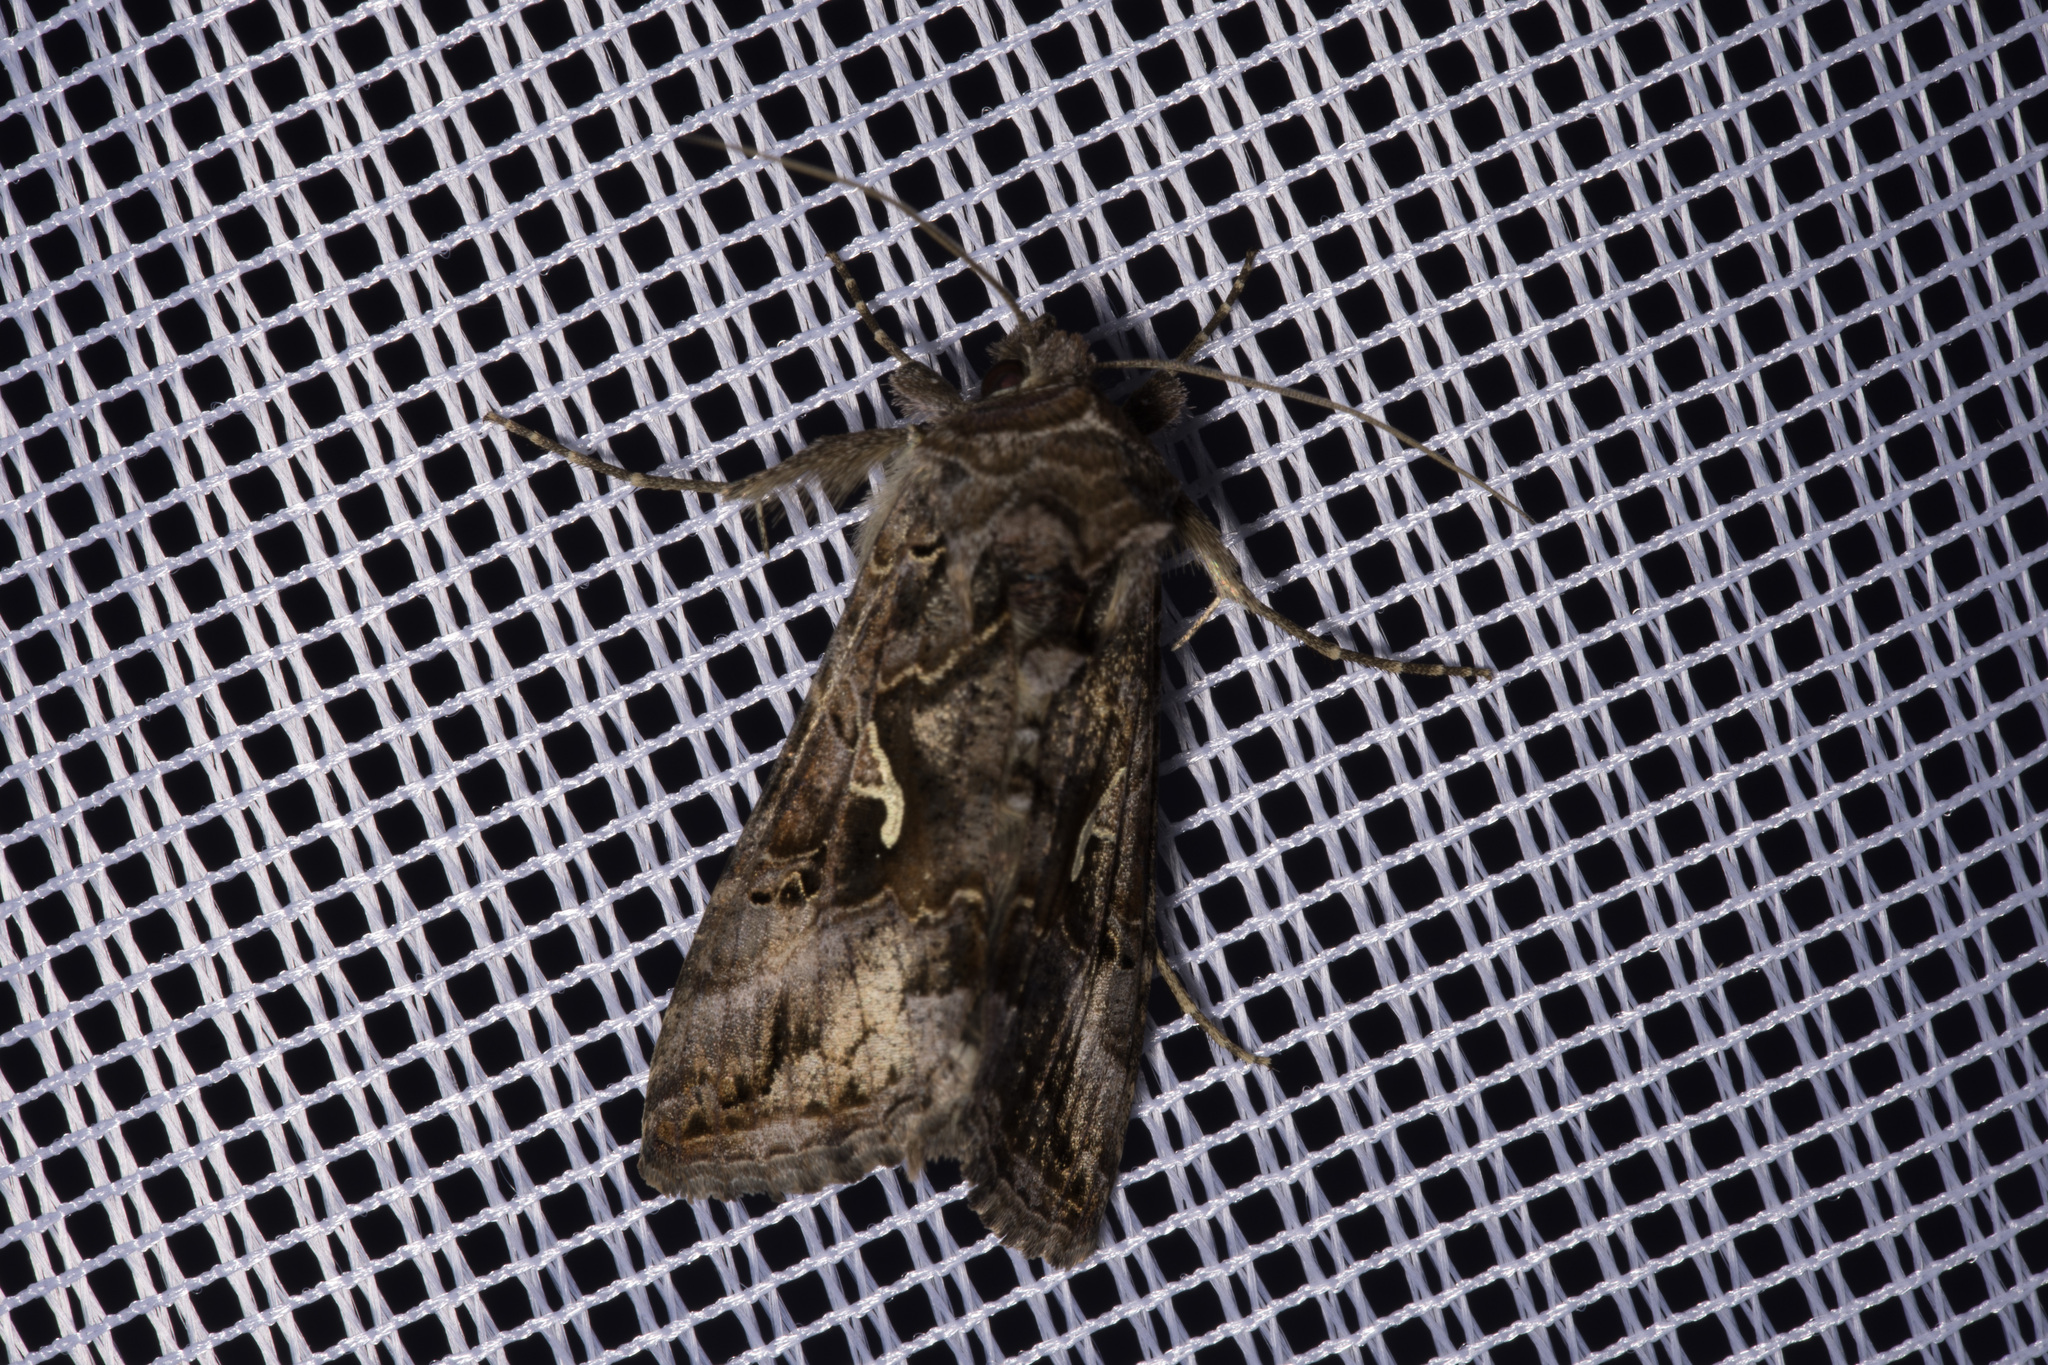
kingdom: Animalia
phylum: Arthropoda
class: Insecta
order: Lepidoptera
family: Noctuidae
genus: Autographa
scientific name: Autographa gamma
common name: Silver y
